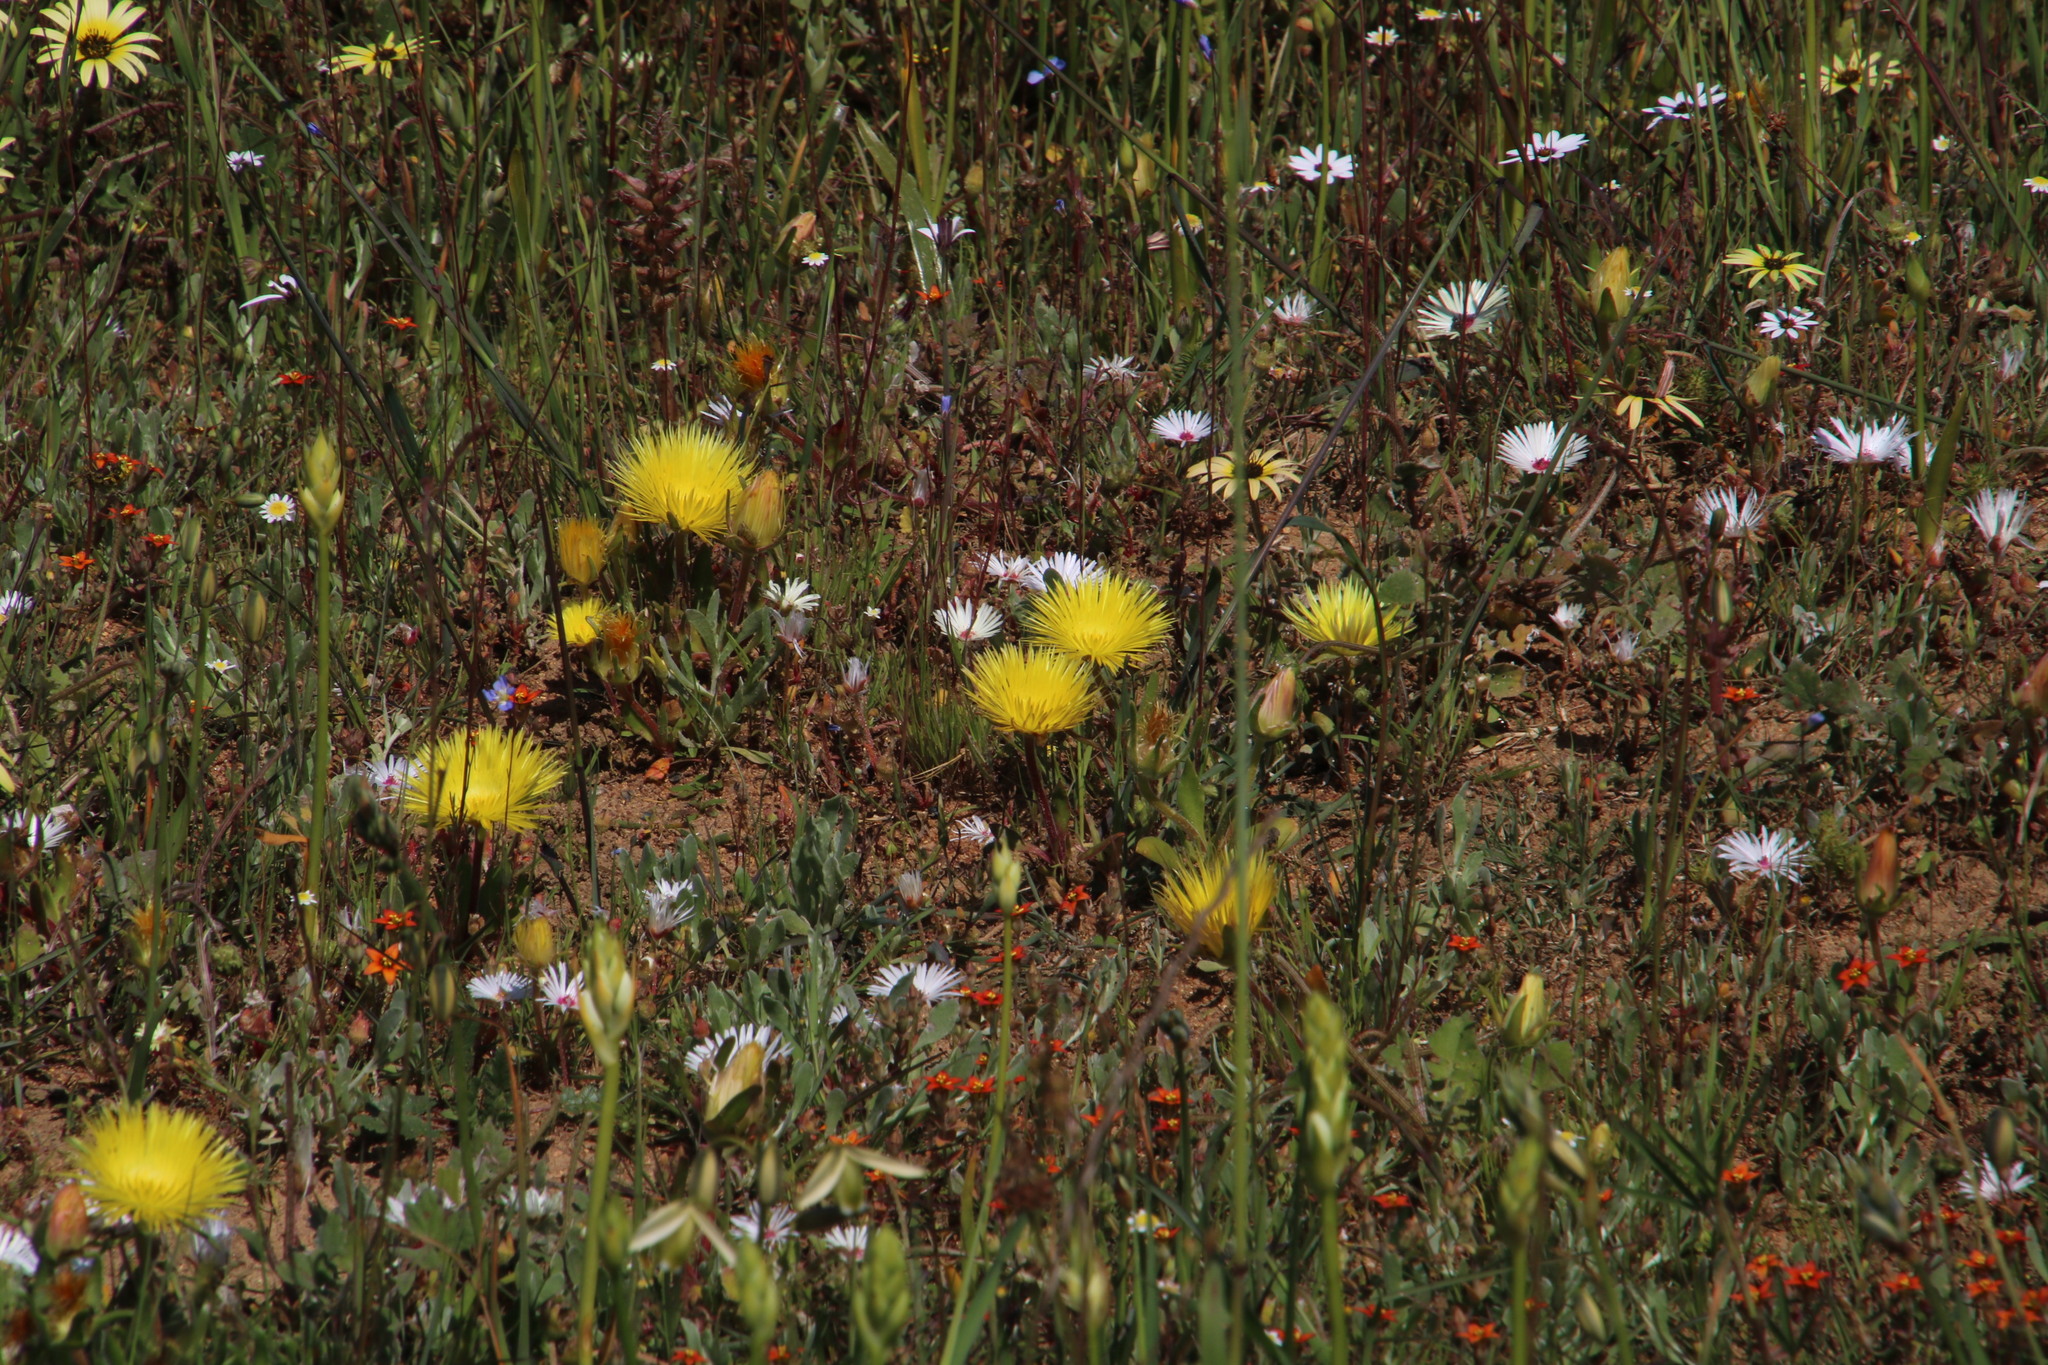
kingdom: Plantae
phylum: Tracheophyta
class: Magnoliopsida
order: Caryophyllales
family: Aizoaceae
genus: Carpanthea
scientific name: Carpanthea pomeridiana
